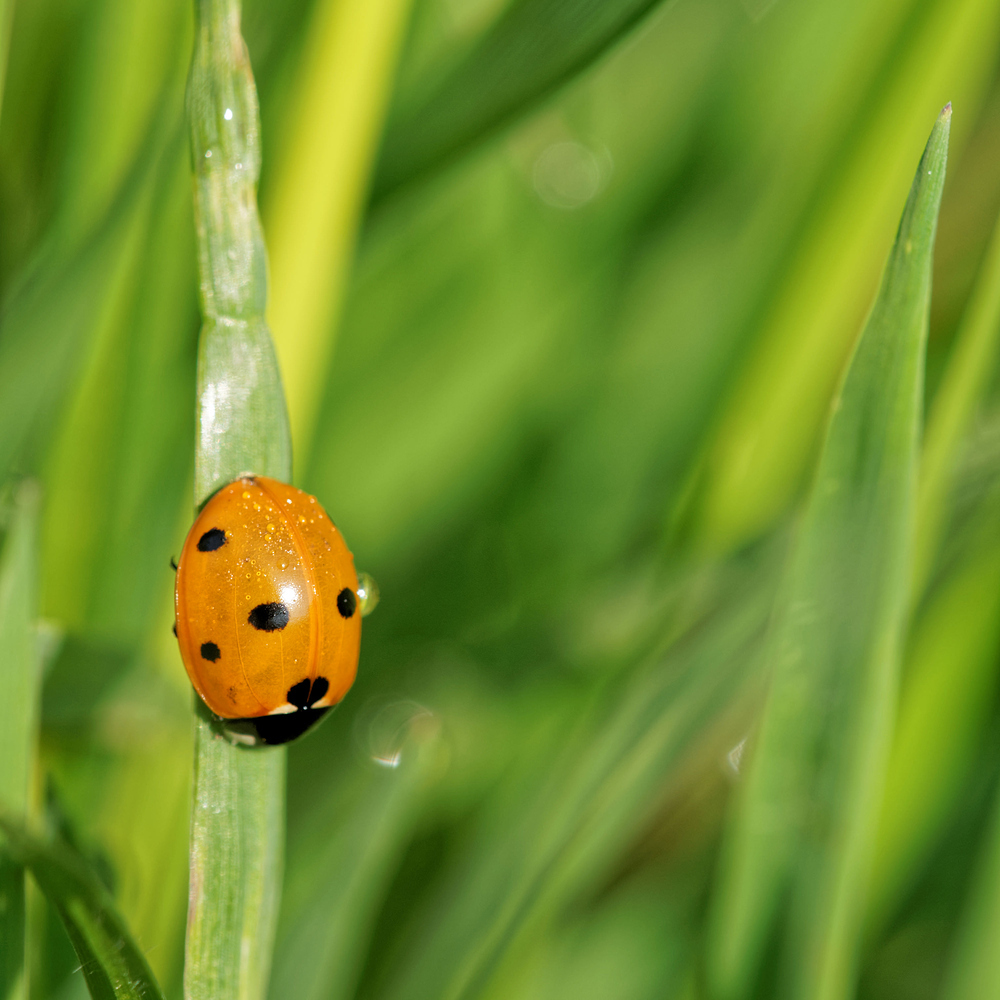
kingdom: Animalia
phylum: Arthropoda
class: Insecta
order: Coleoptera
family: Coccinellidae
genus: Coccinella
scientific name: Coccinella septempunctata
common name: Sevenspotted lady beetle
